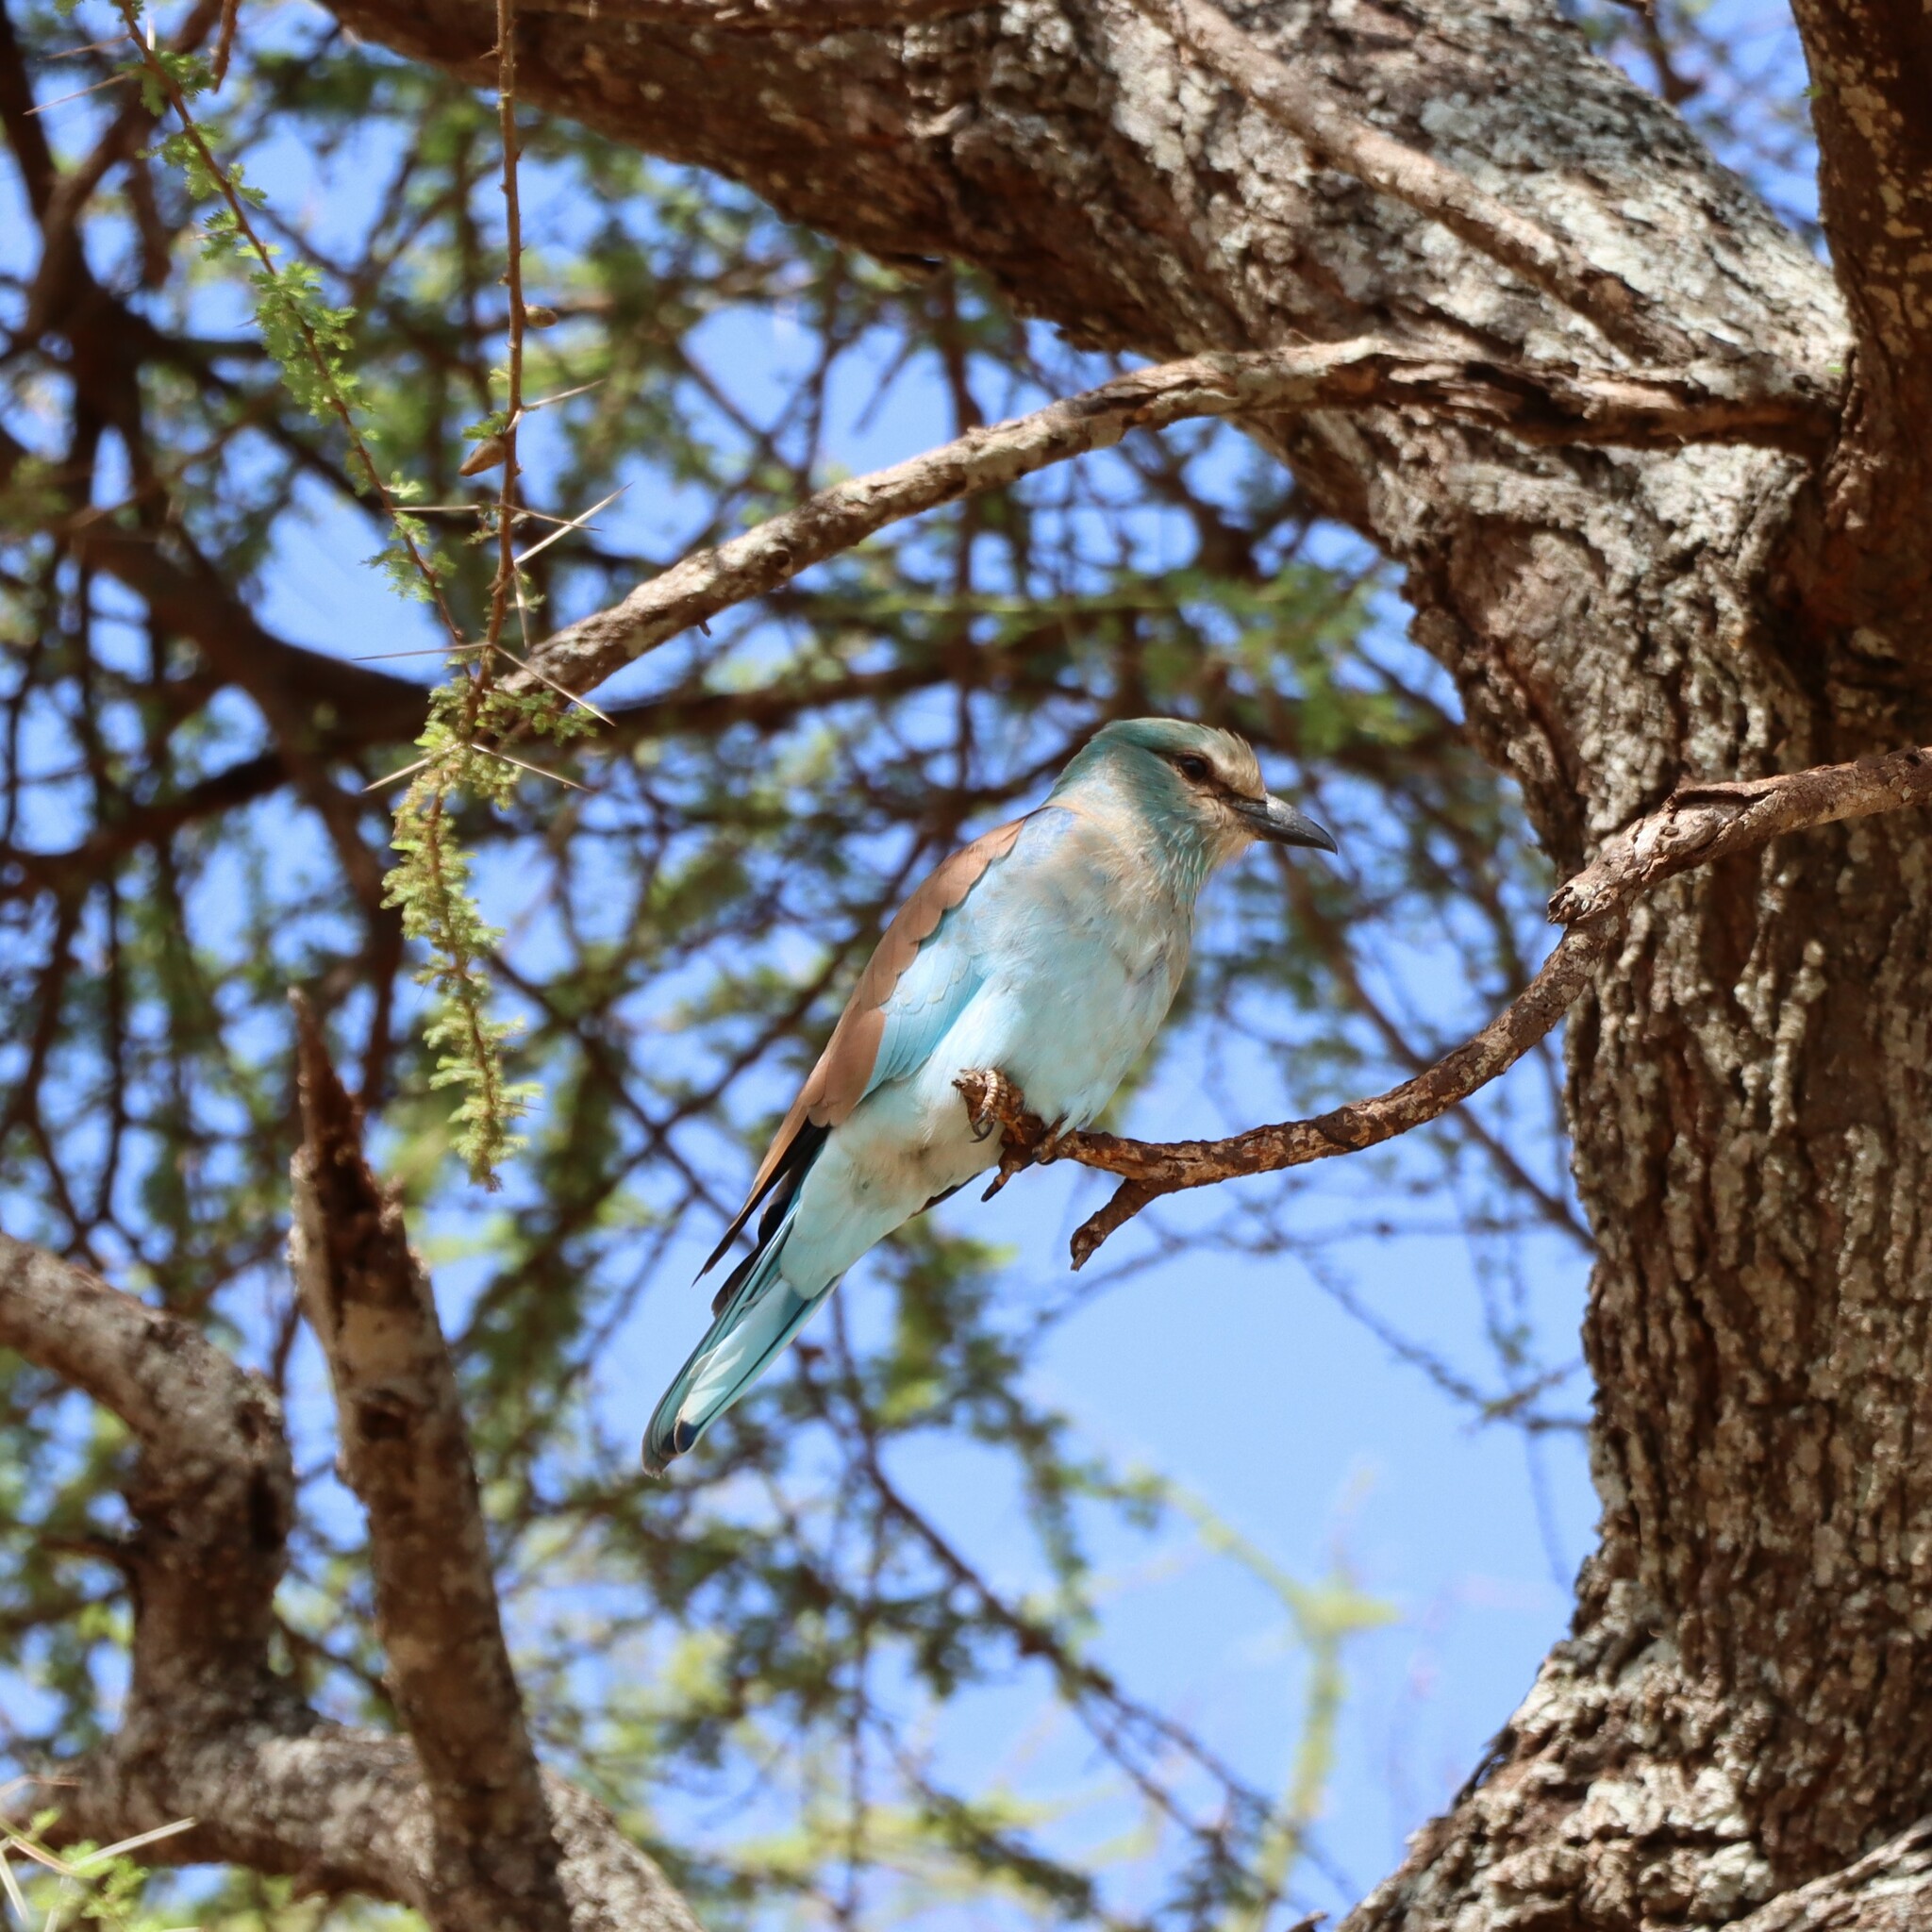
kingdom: Animalia
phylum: Chordata
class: Aves
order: Coraciiformes
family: Coraciidae
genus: Coracias
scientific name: Coracias garrulus
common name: European roller
